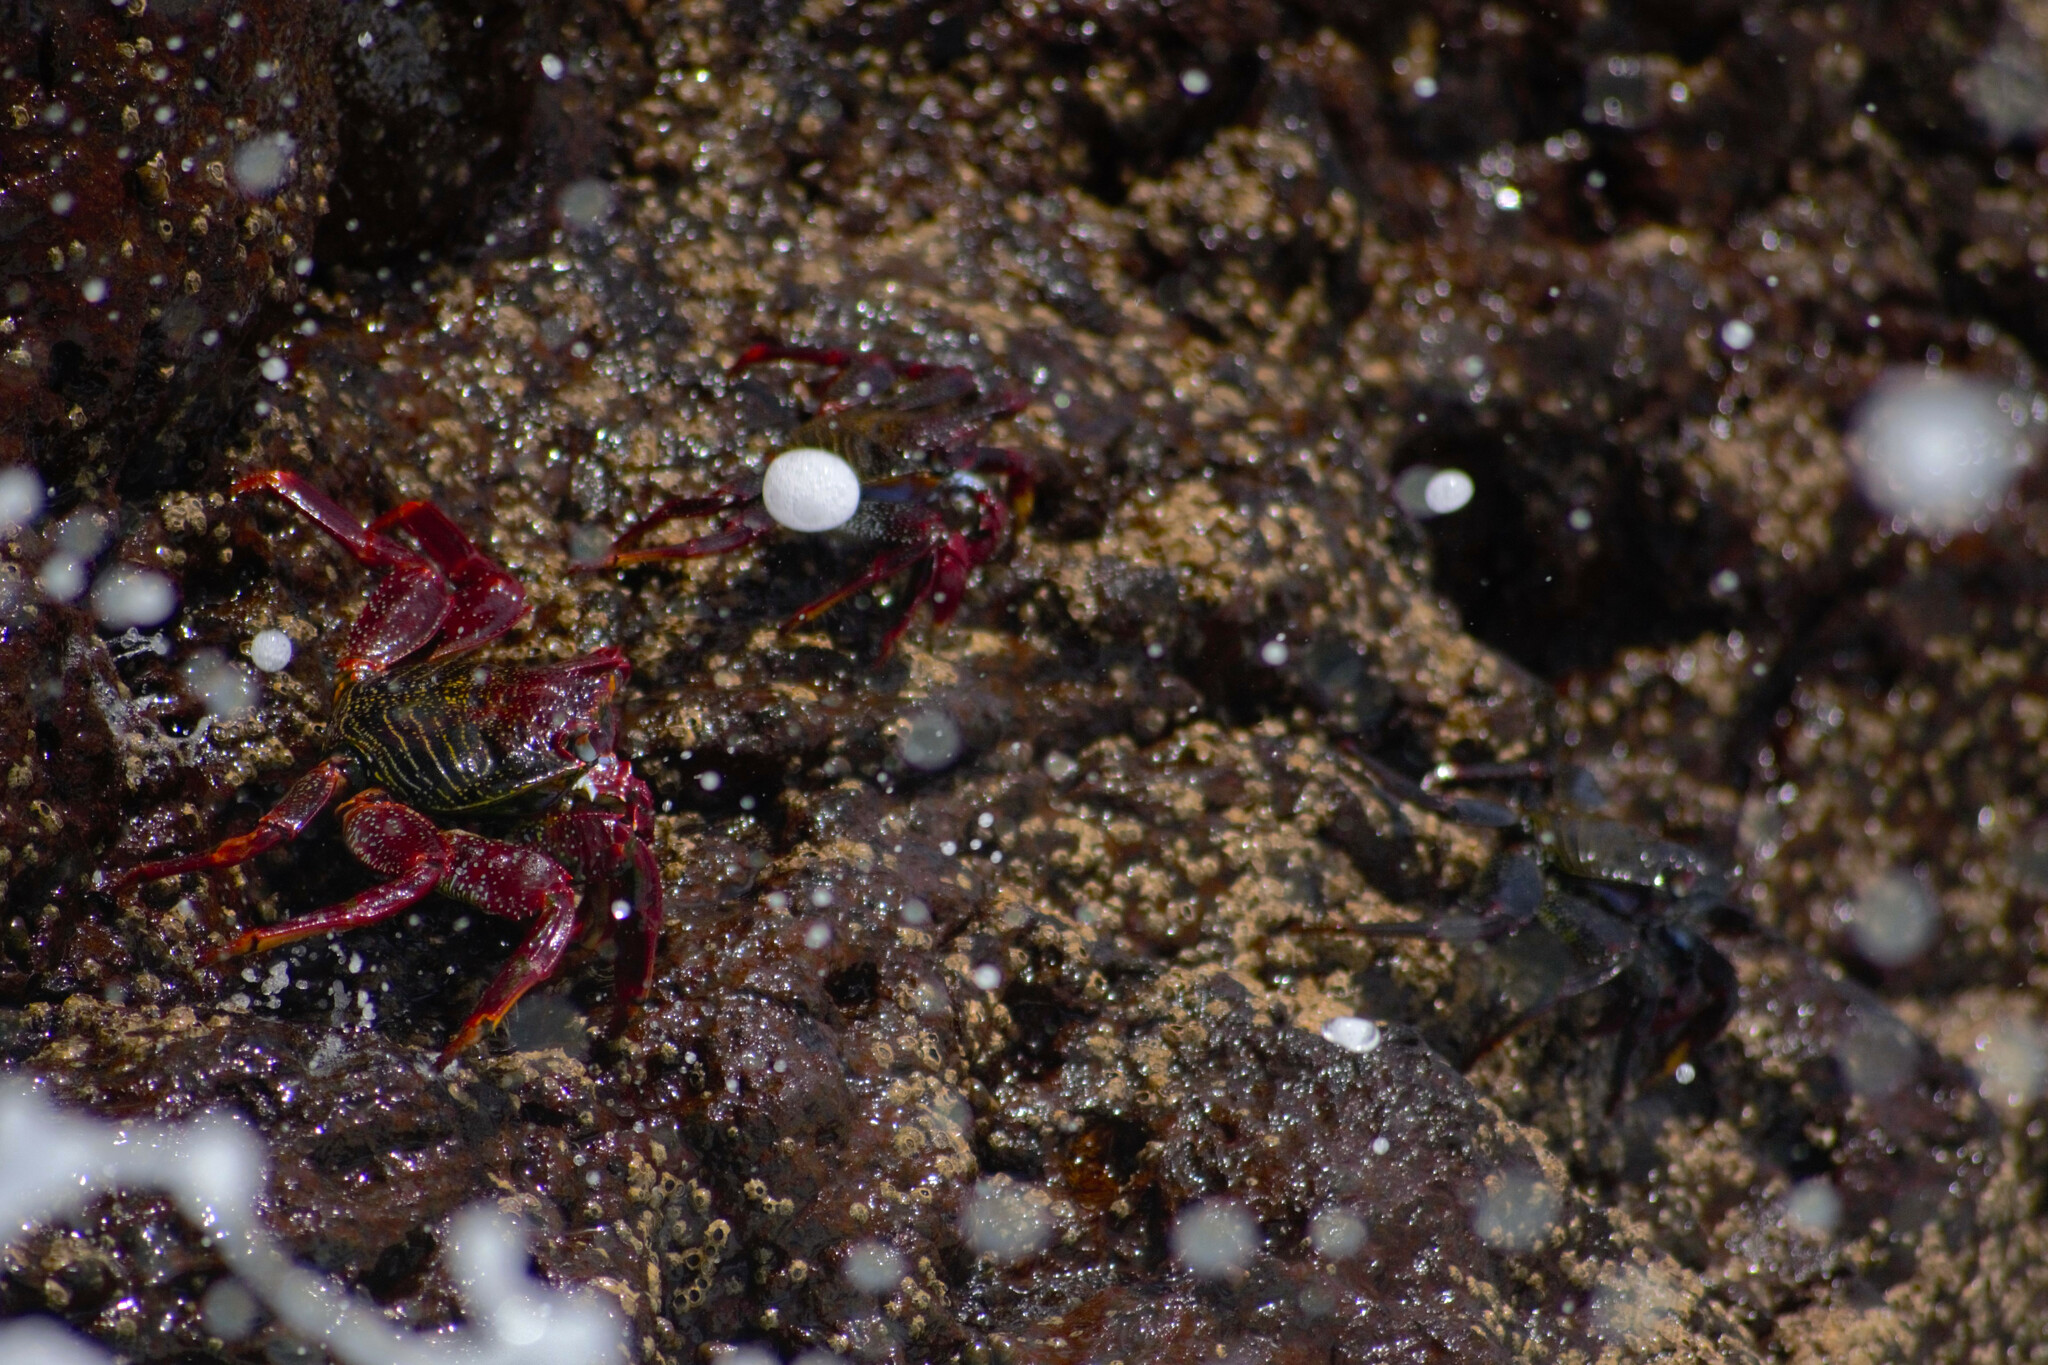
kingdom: Animalia
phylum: Arthropoda
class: Malacostraca
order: Decapoda
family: Grapsidae
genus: Grapsus
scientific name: Grapsus adscensionis
